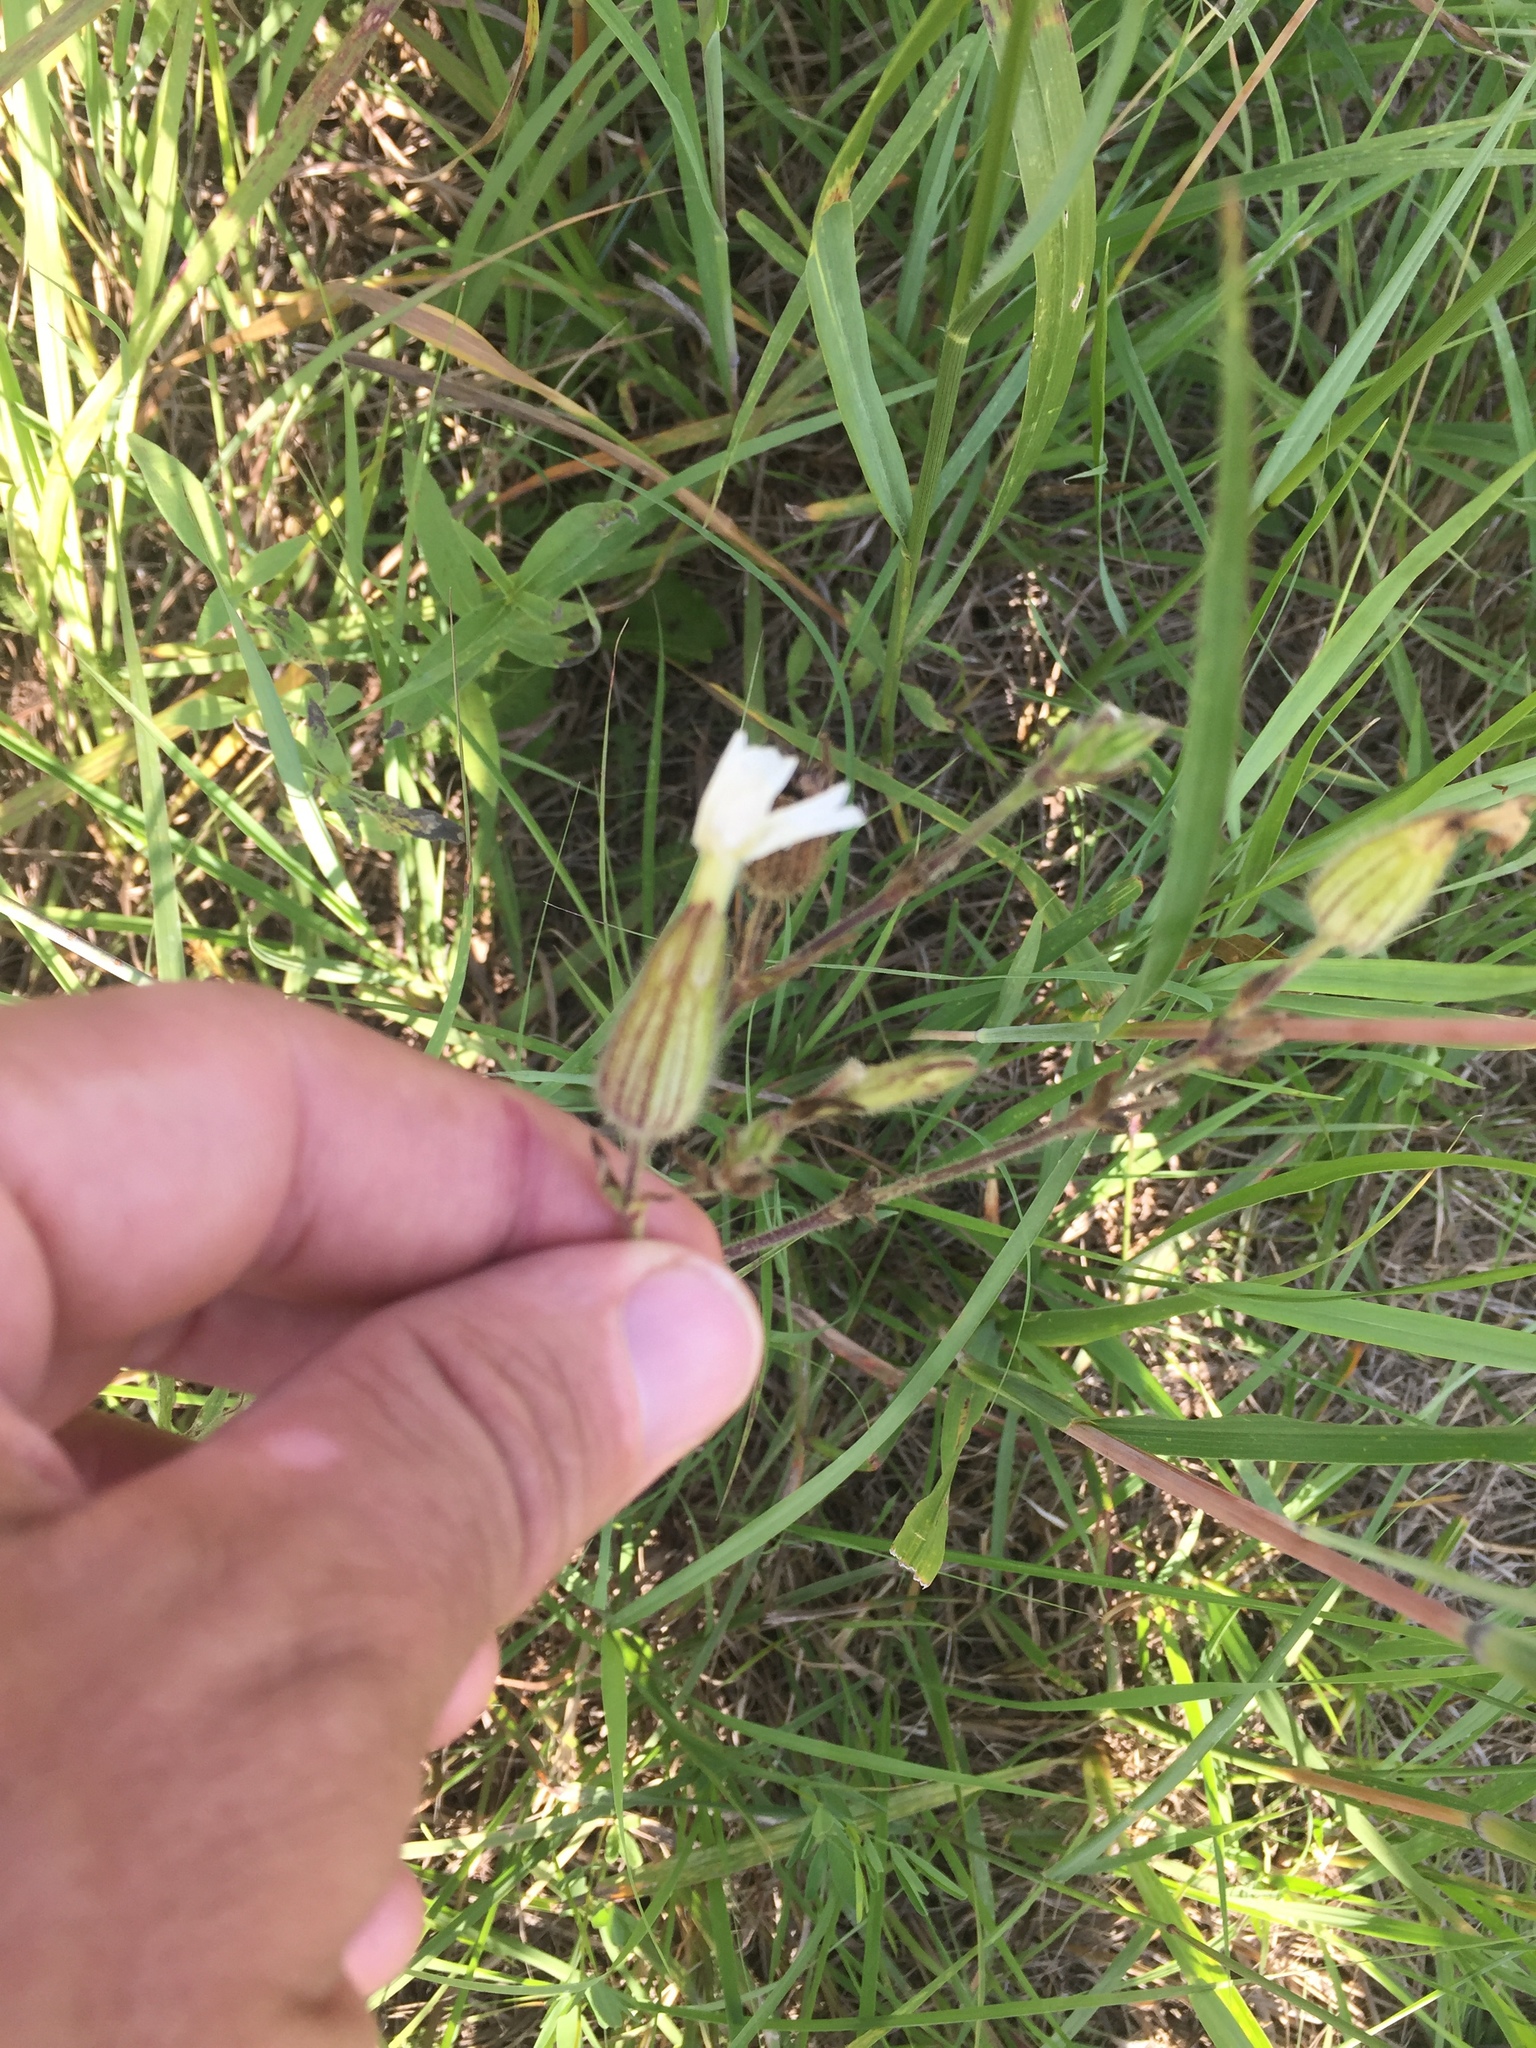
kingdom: Plantae
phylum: Tracheophyta
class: Magnoliopsida
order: Caryophyllales
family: Caryophyllaceae
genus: Silene
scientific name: Silene latifolia
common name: White campion
